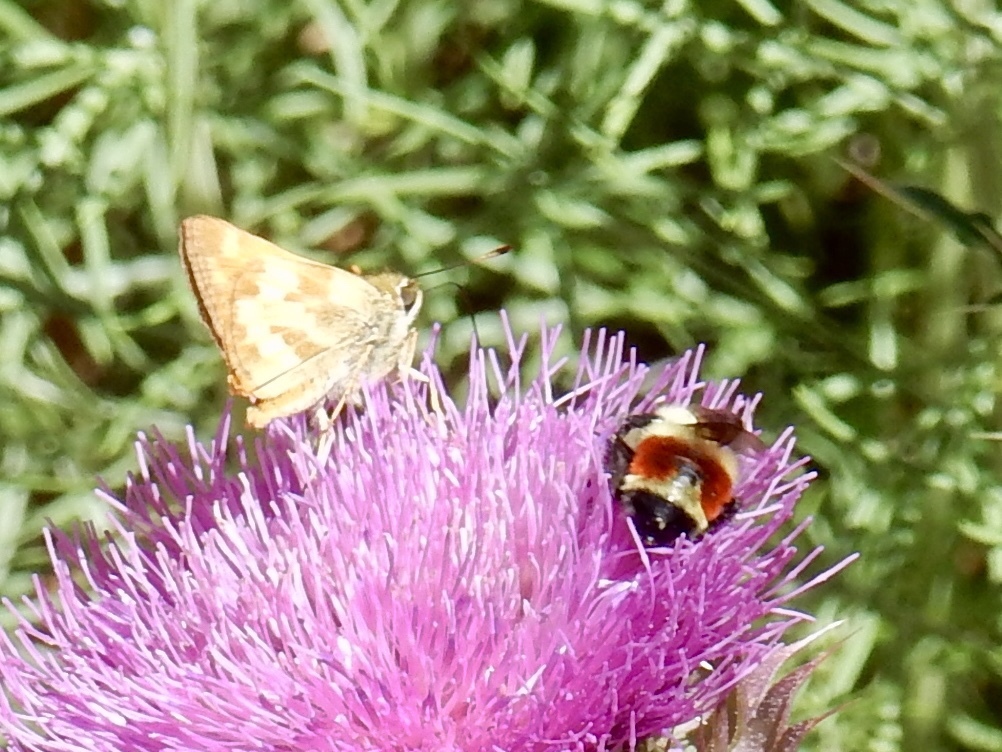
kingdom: Animalia
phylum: Arthropoda
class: Insecta
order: Lepidoptera
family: Hesperiidae
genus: Lon
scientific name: Lon taxiles
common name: Taxiles skipper
